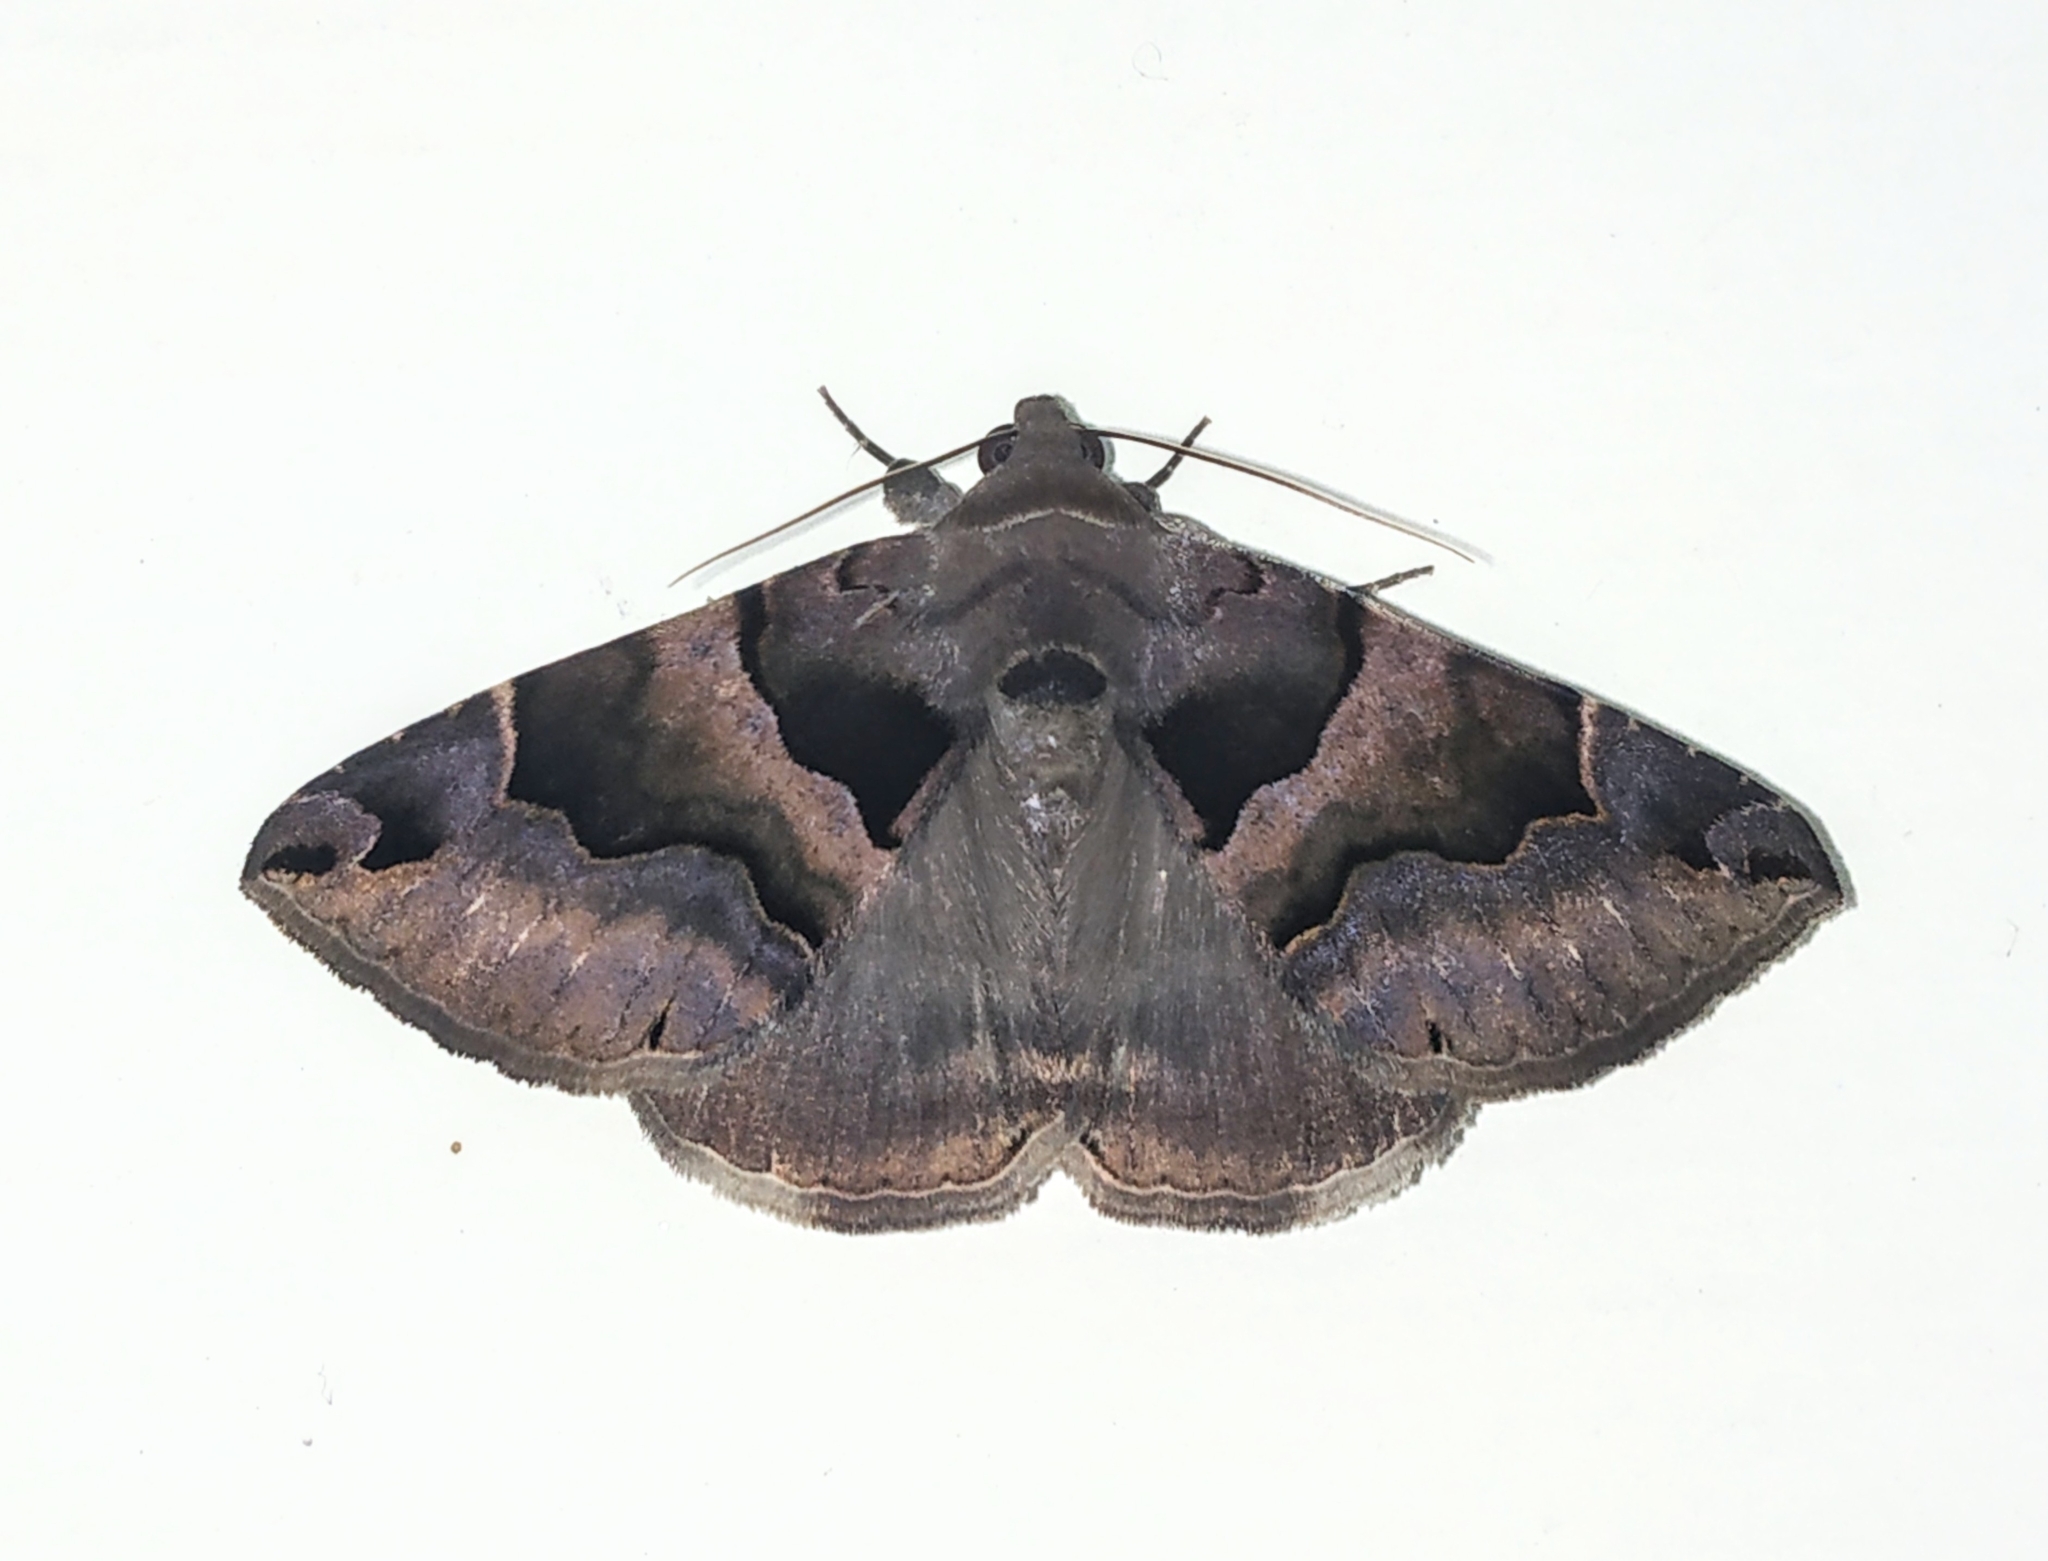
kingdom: Animalia
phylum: Arthropoda
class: Insecta
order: Lepidoptera
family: Erebidae
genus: Dysgonia
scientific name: Dysgonia simillima
